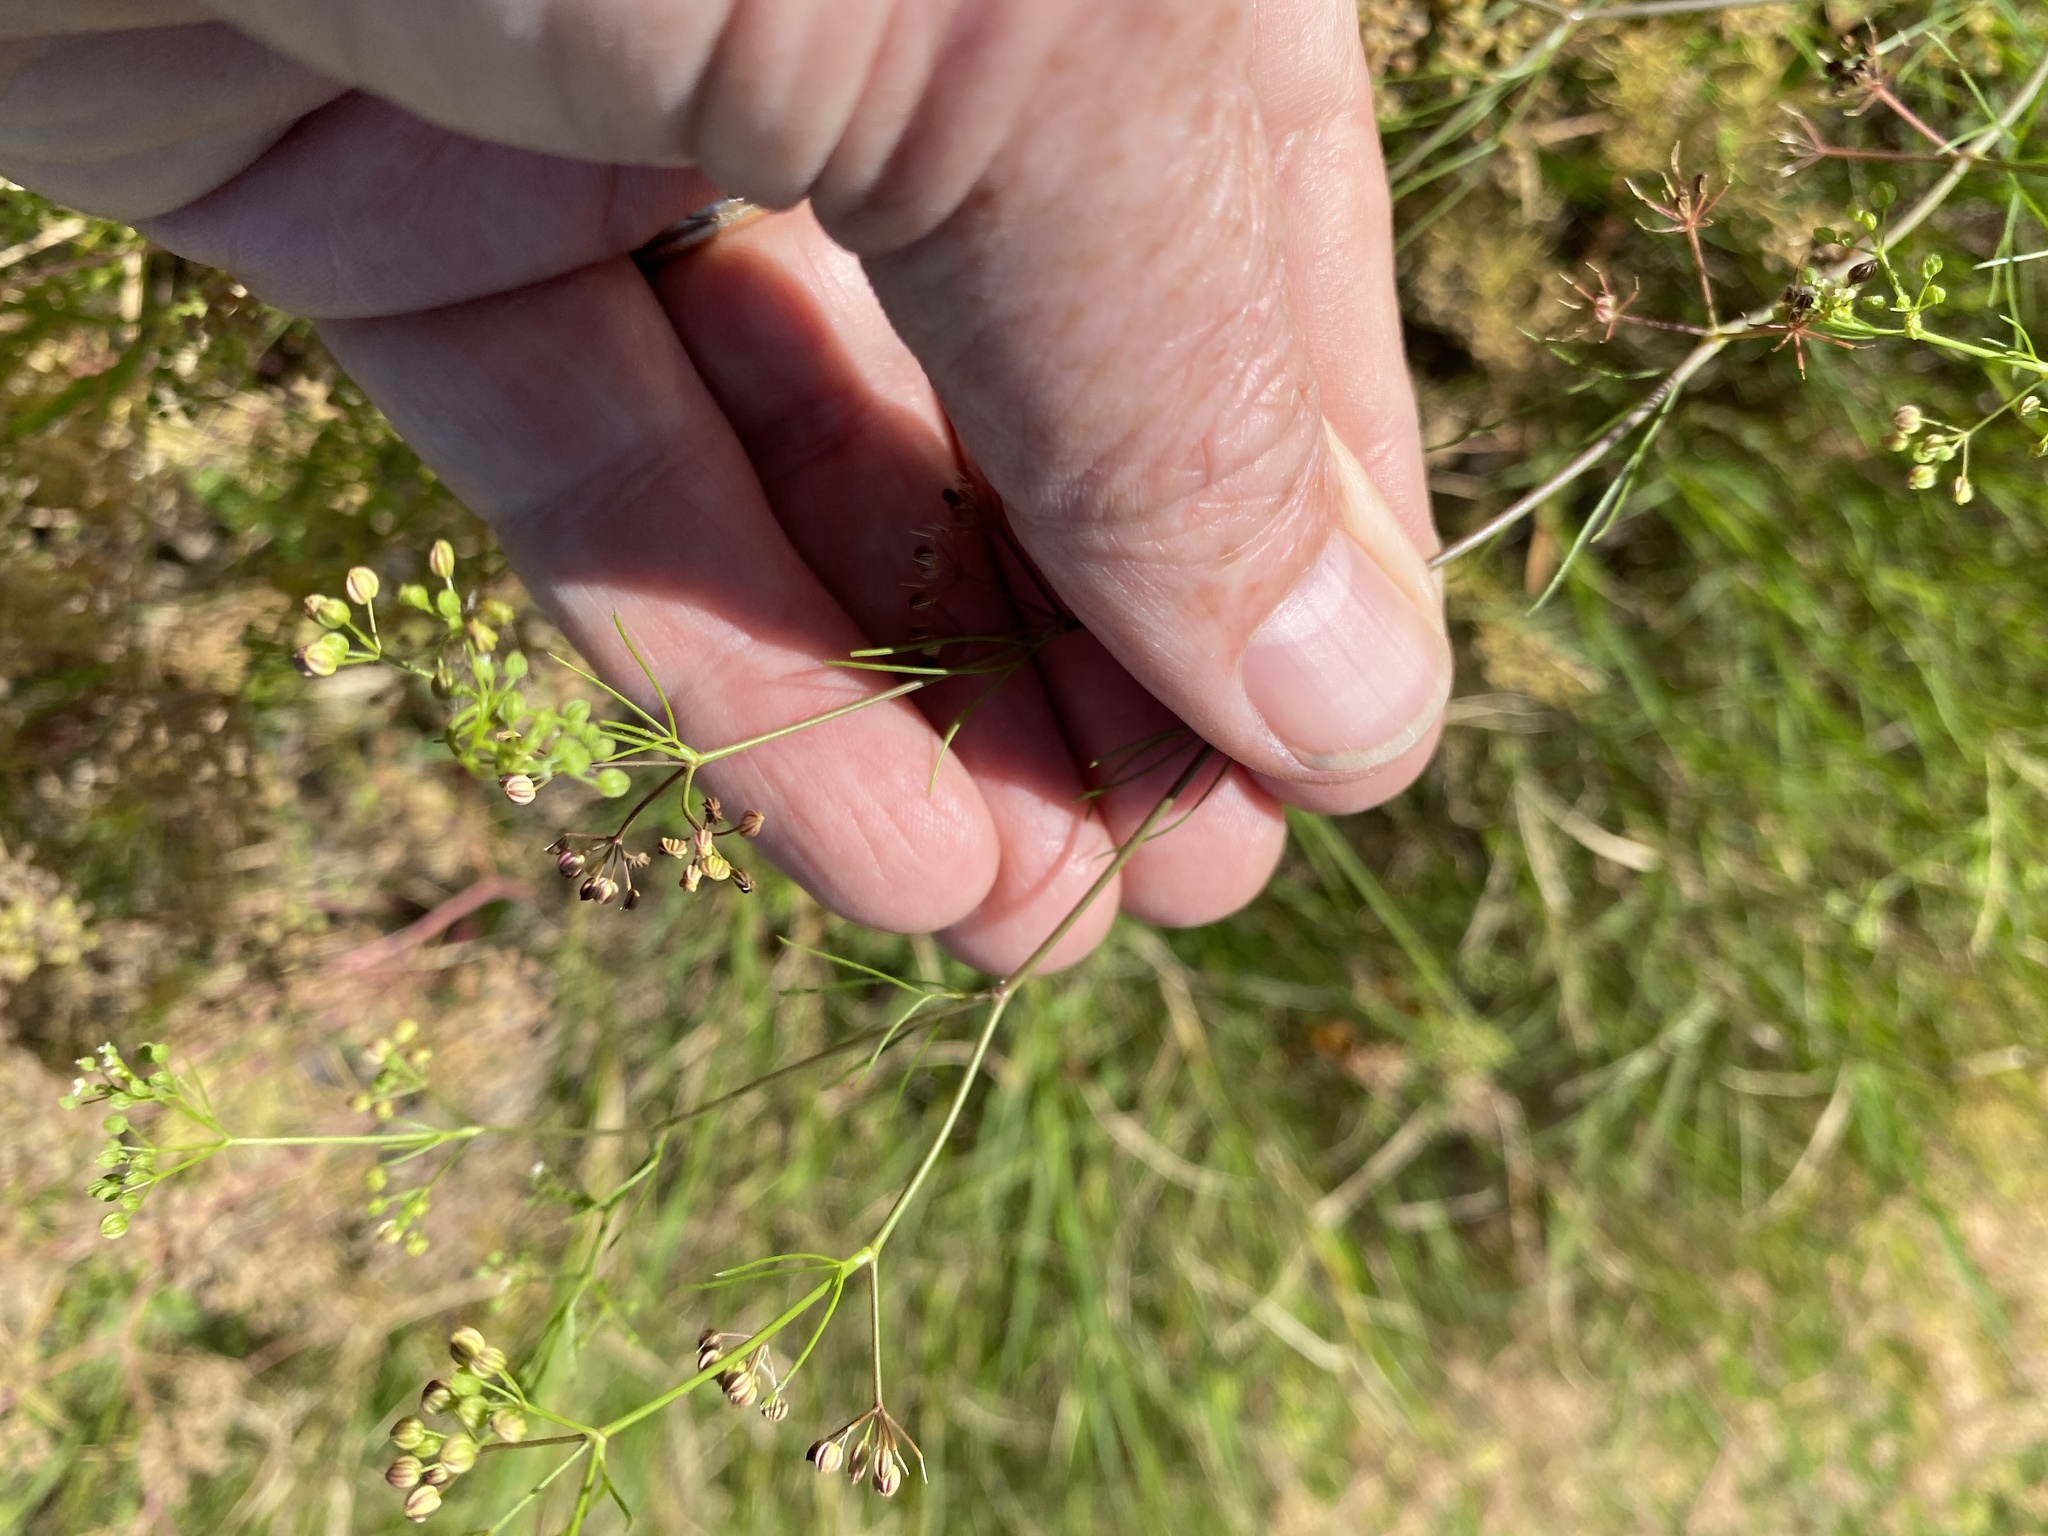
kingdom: Plantae
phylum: Tracheophyta
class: Magnoliopsida
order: Apiales
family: Apiaceae
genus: Cyclospermum
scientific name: Cyclospermum leptophyllum
